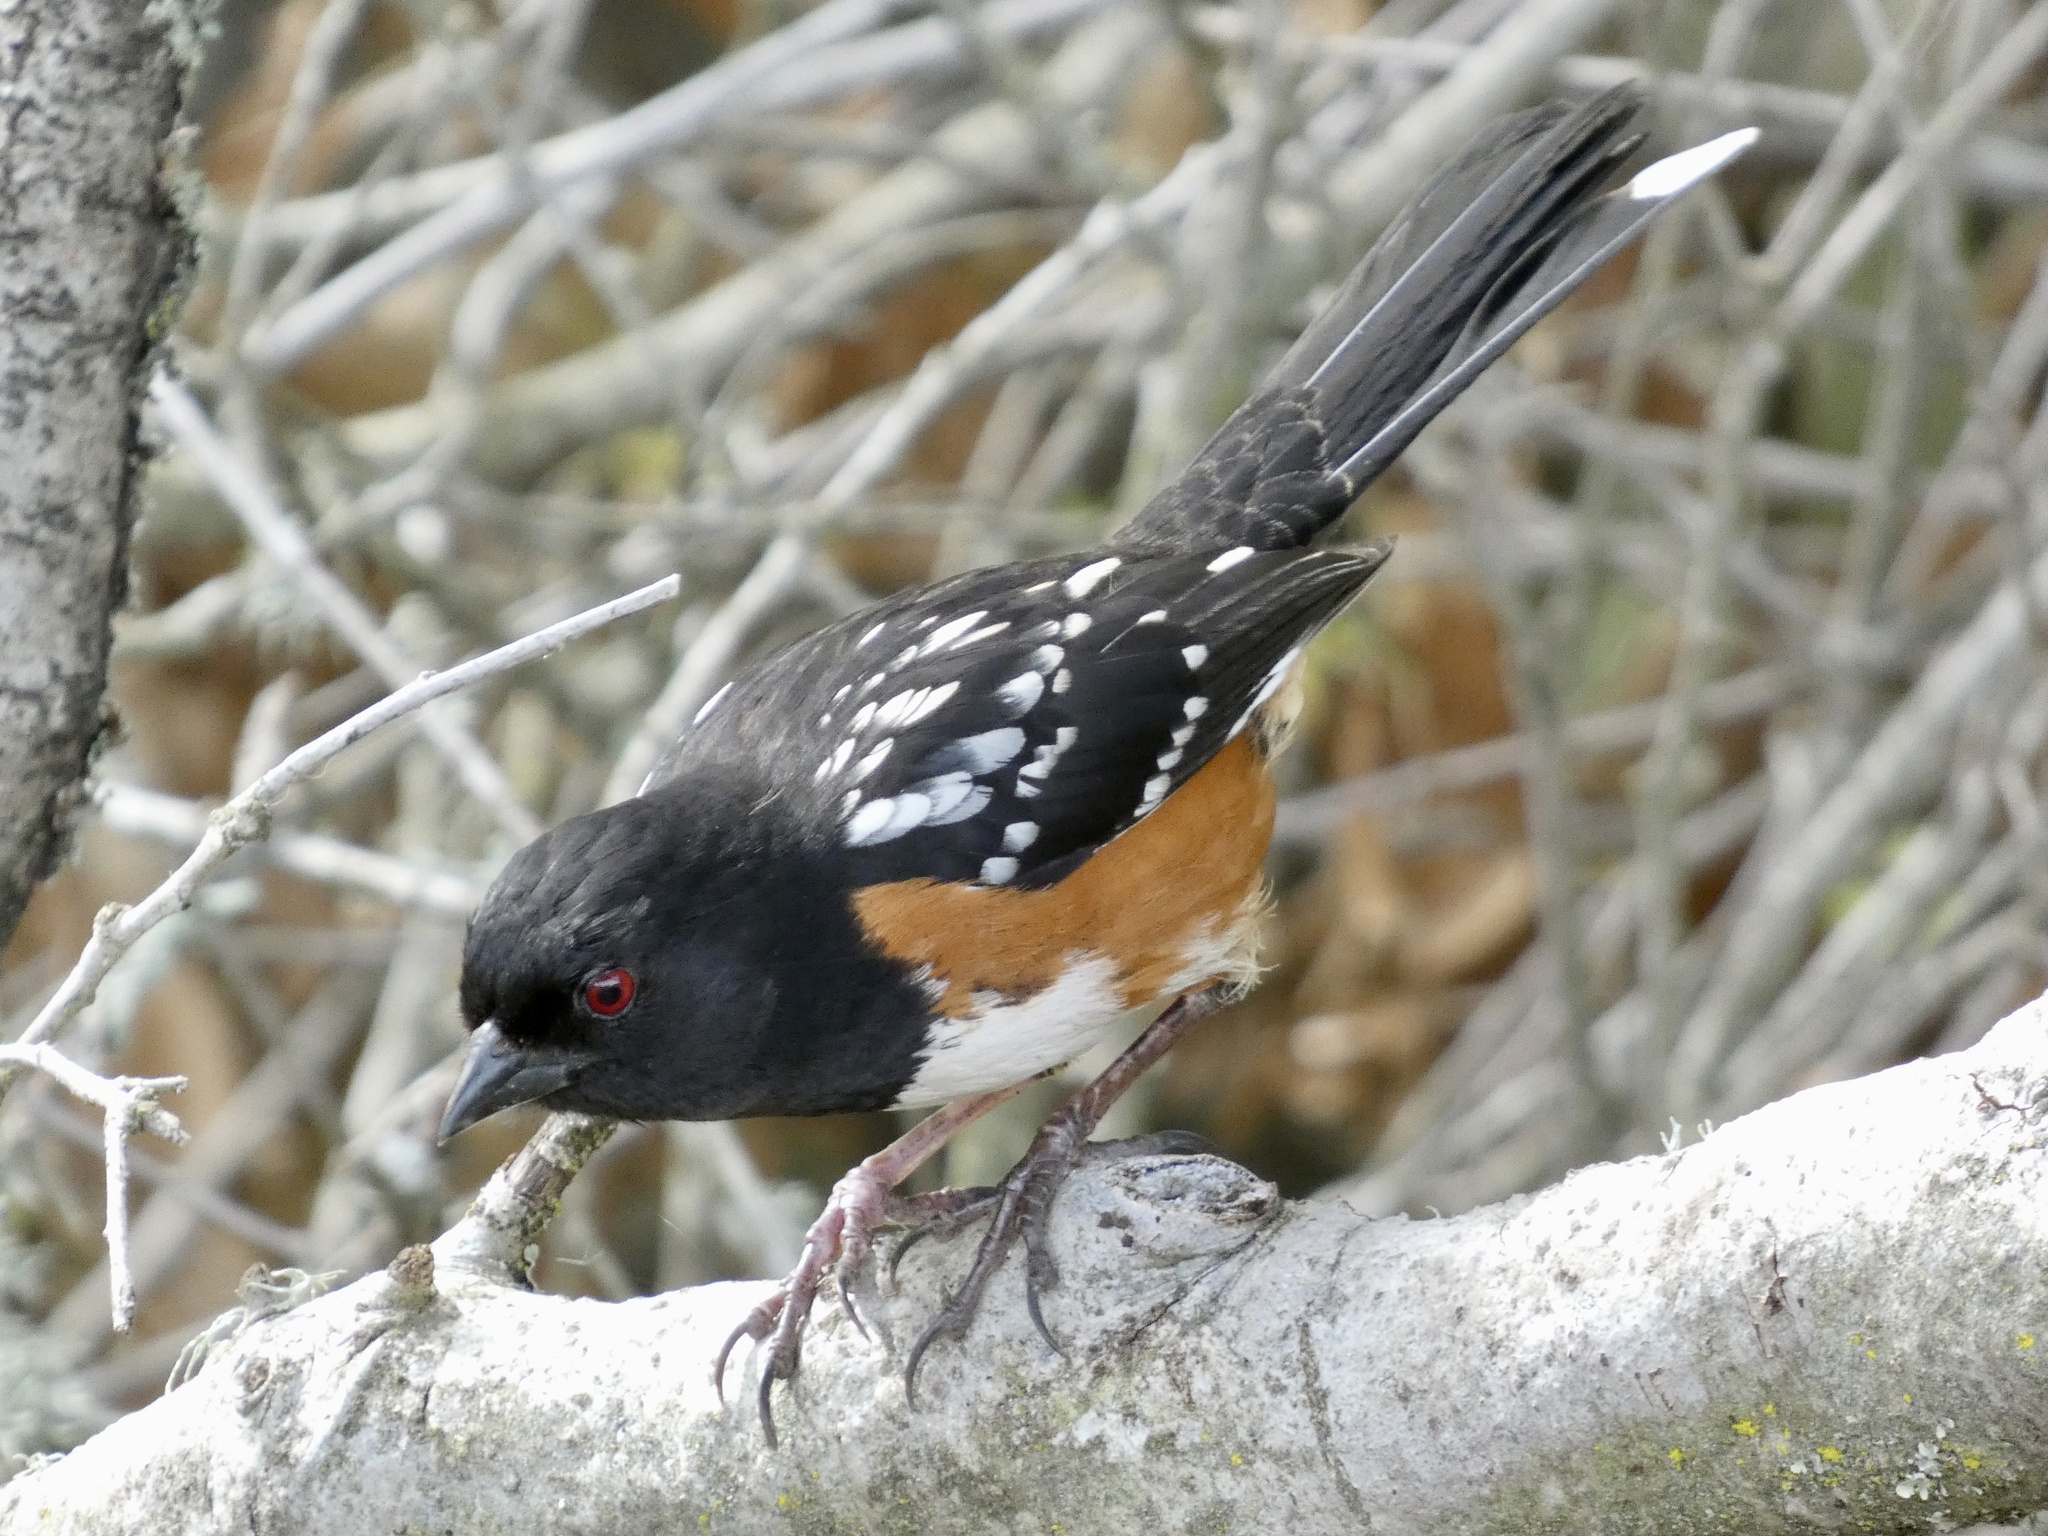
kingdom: Animalia
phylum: Chordata
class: Aves
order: Passeriformes
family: Passerellidae
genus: Pipilo
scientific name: Pipilo maculatus
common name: Spotted towhee
